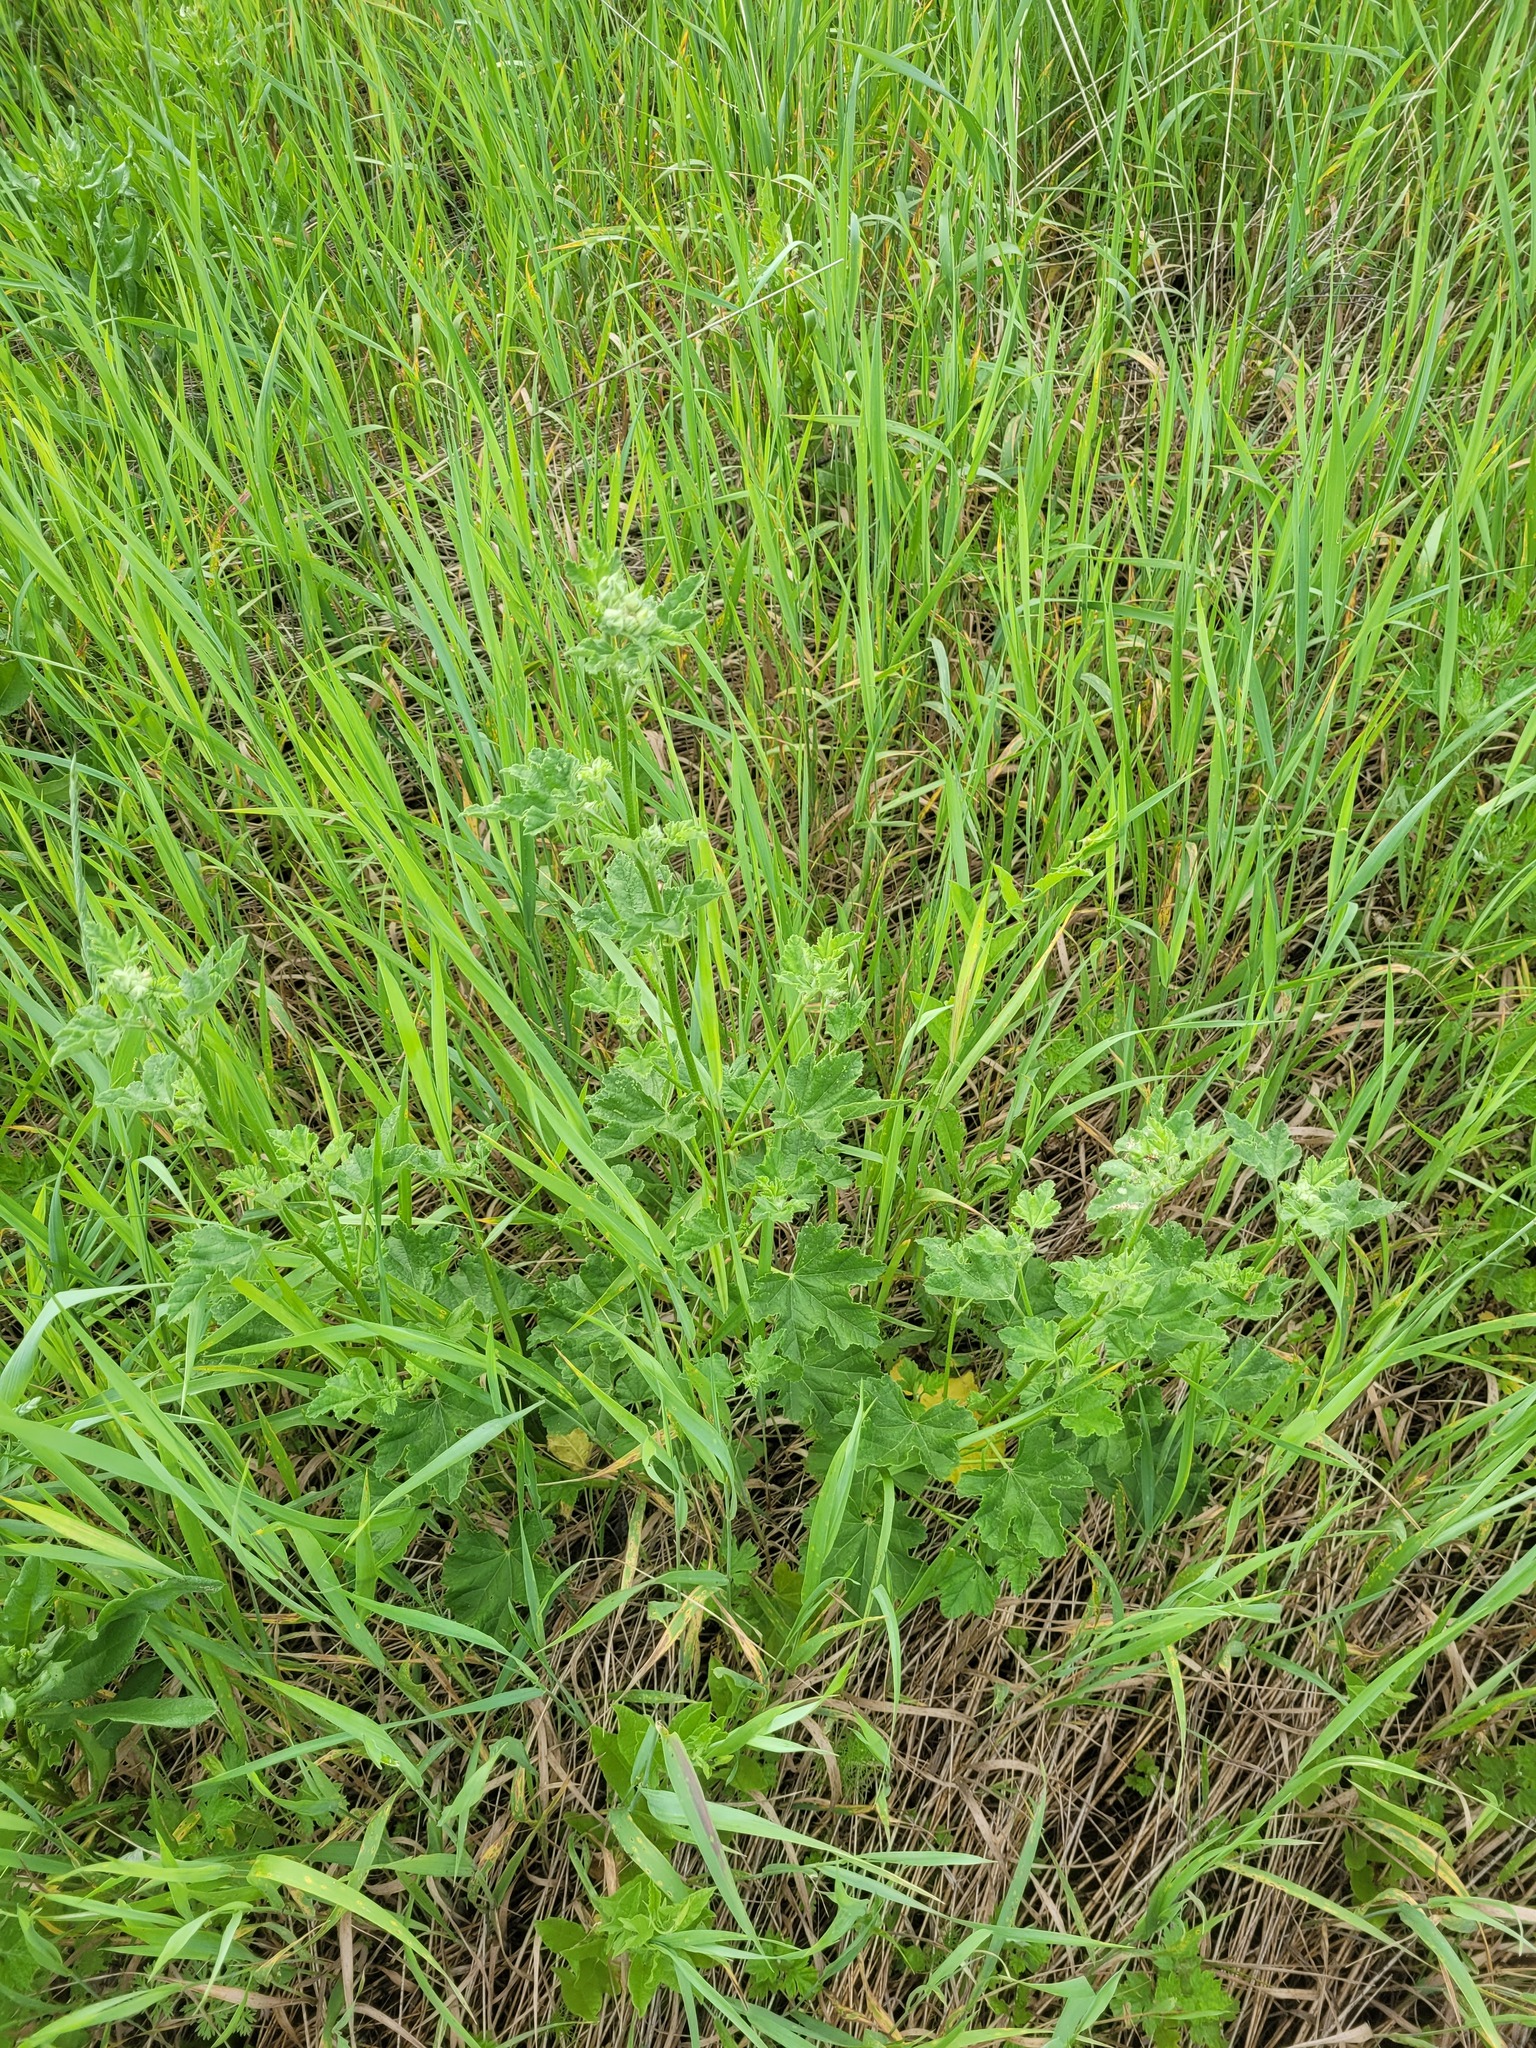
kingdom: Plantae
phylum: Tracheophyta
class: Magnoliopsida
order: Malvales
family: Malvaceae
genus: Malva
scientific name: Malva thuringiaca
